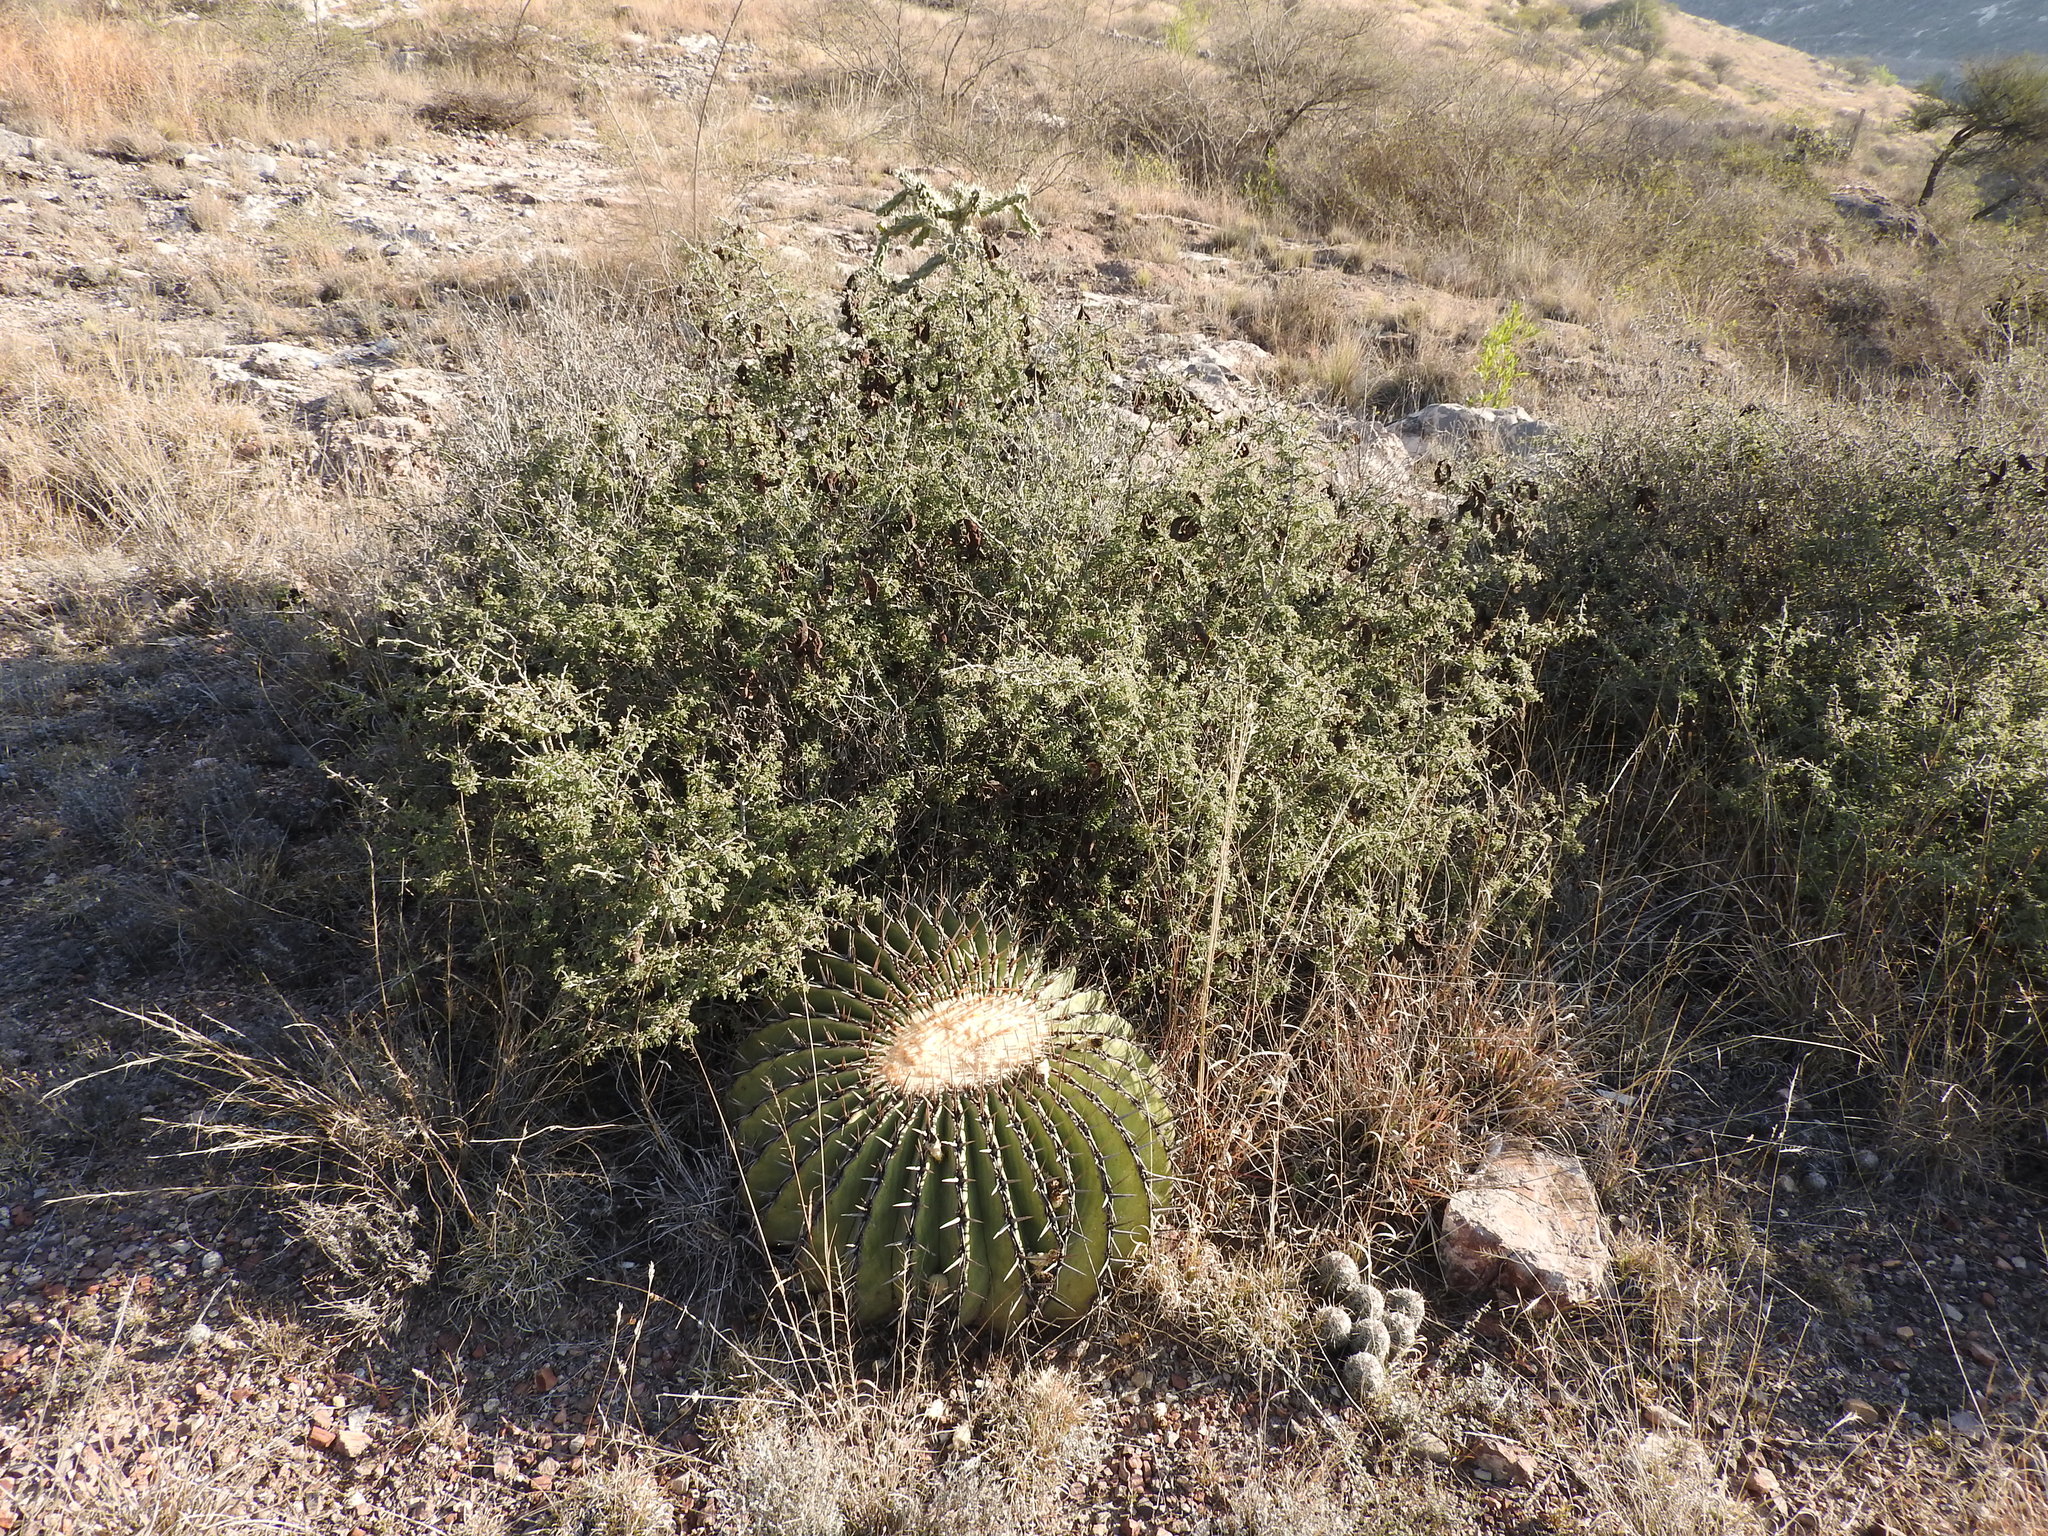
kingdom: Plantae
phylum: Tracheophyta
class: Magnoliopsida
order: Caryophyllales
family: Cactaceae
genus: Echinocactus
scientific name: Echinocactus platyacanthus
